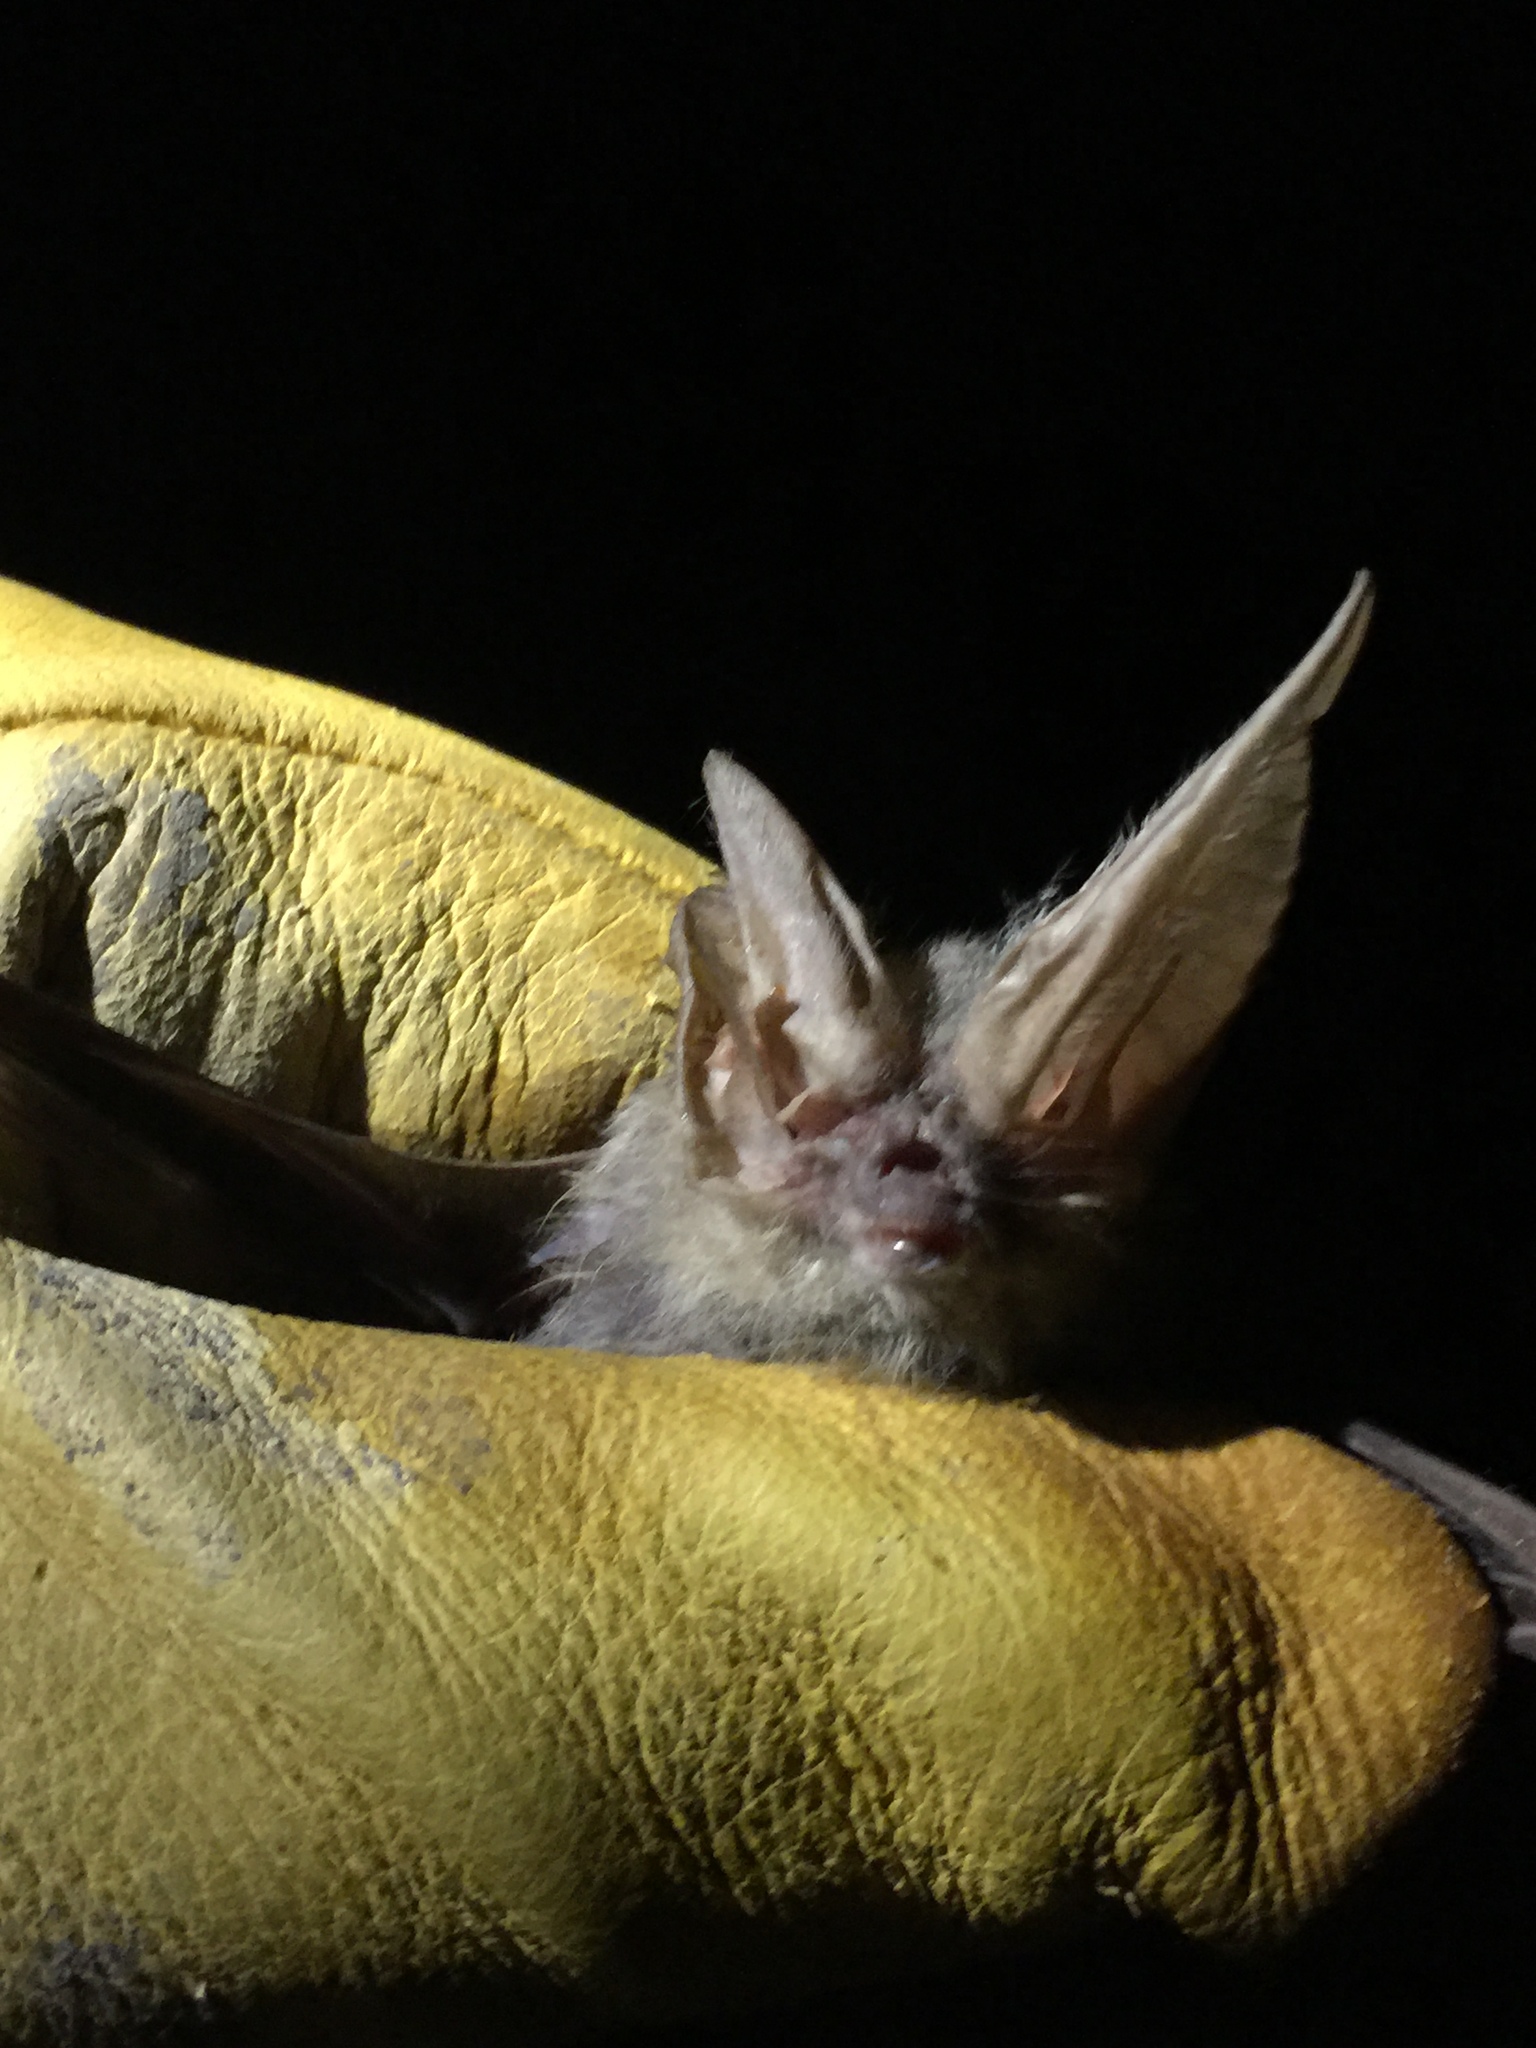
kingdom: Animalia
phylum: Chordata
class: Mammalia
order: Chiroptera
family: Vespertilionidae
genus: Corynorhinus
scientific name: Corynorhinus townsendii
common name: Townsend's big-eared bat
